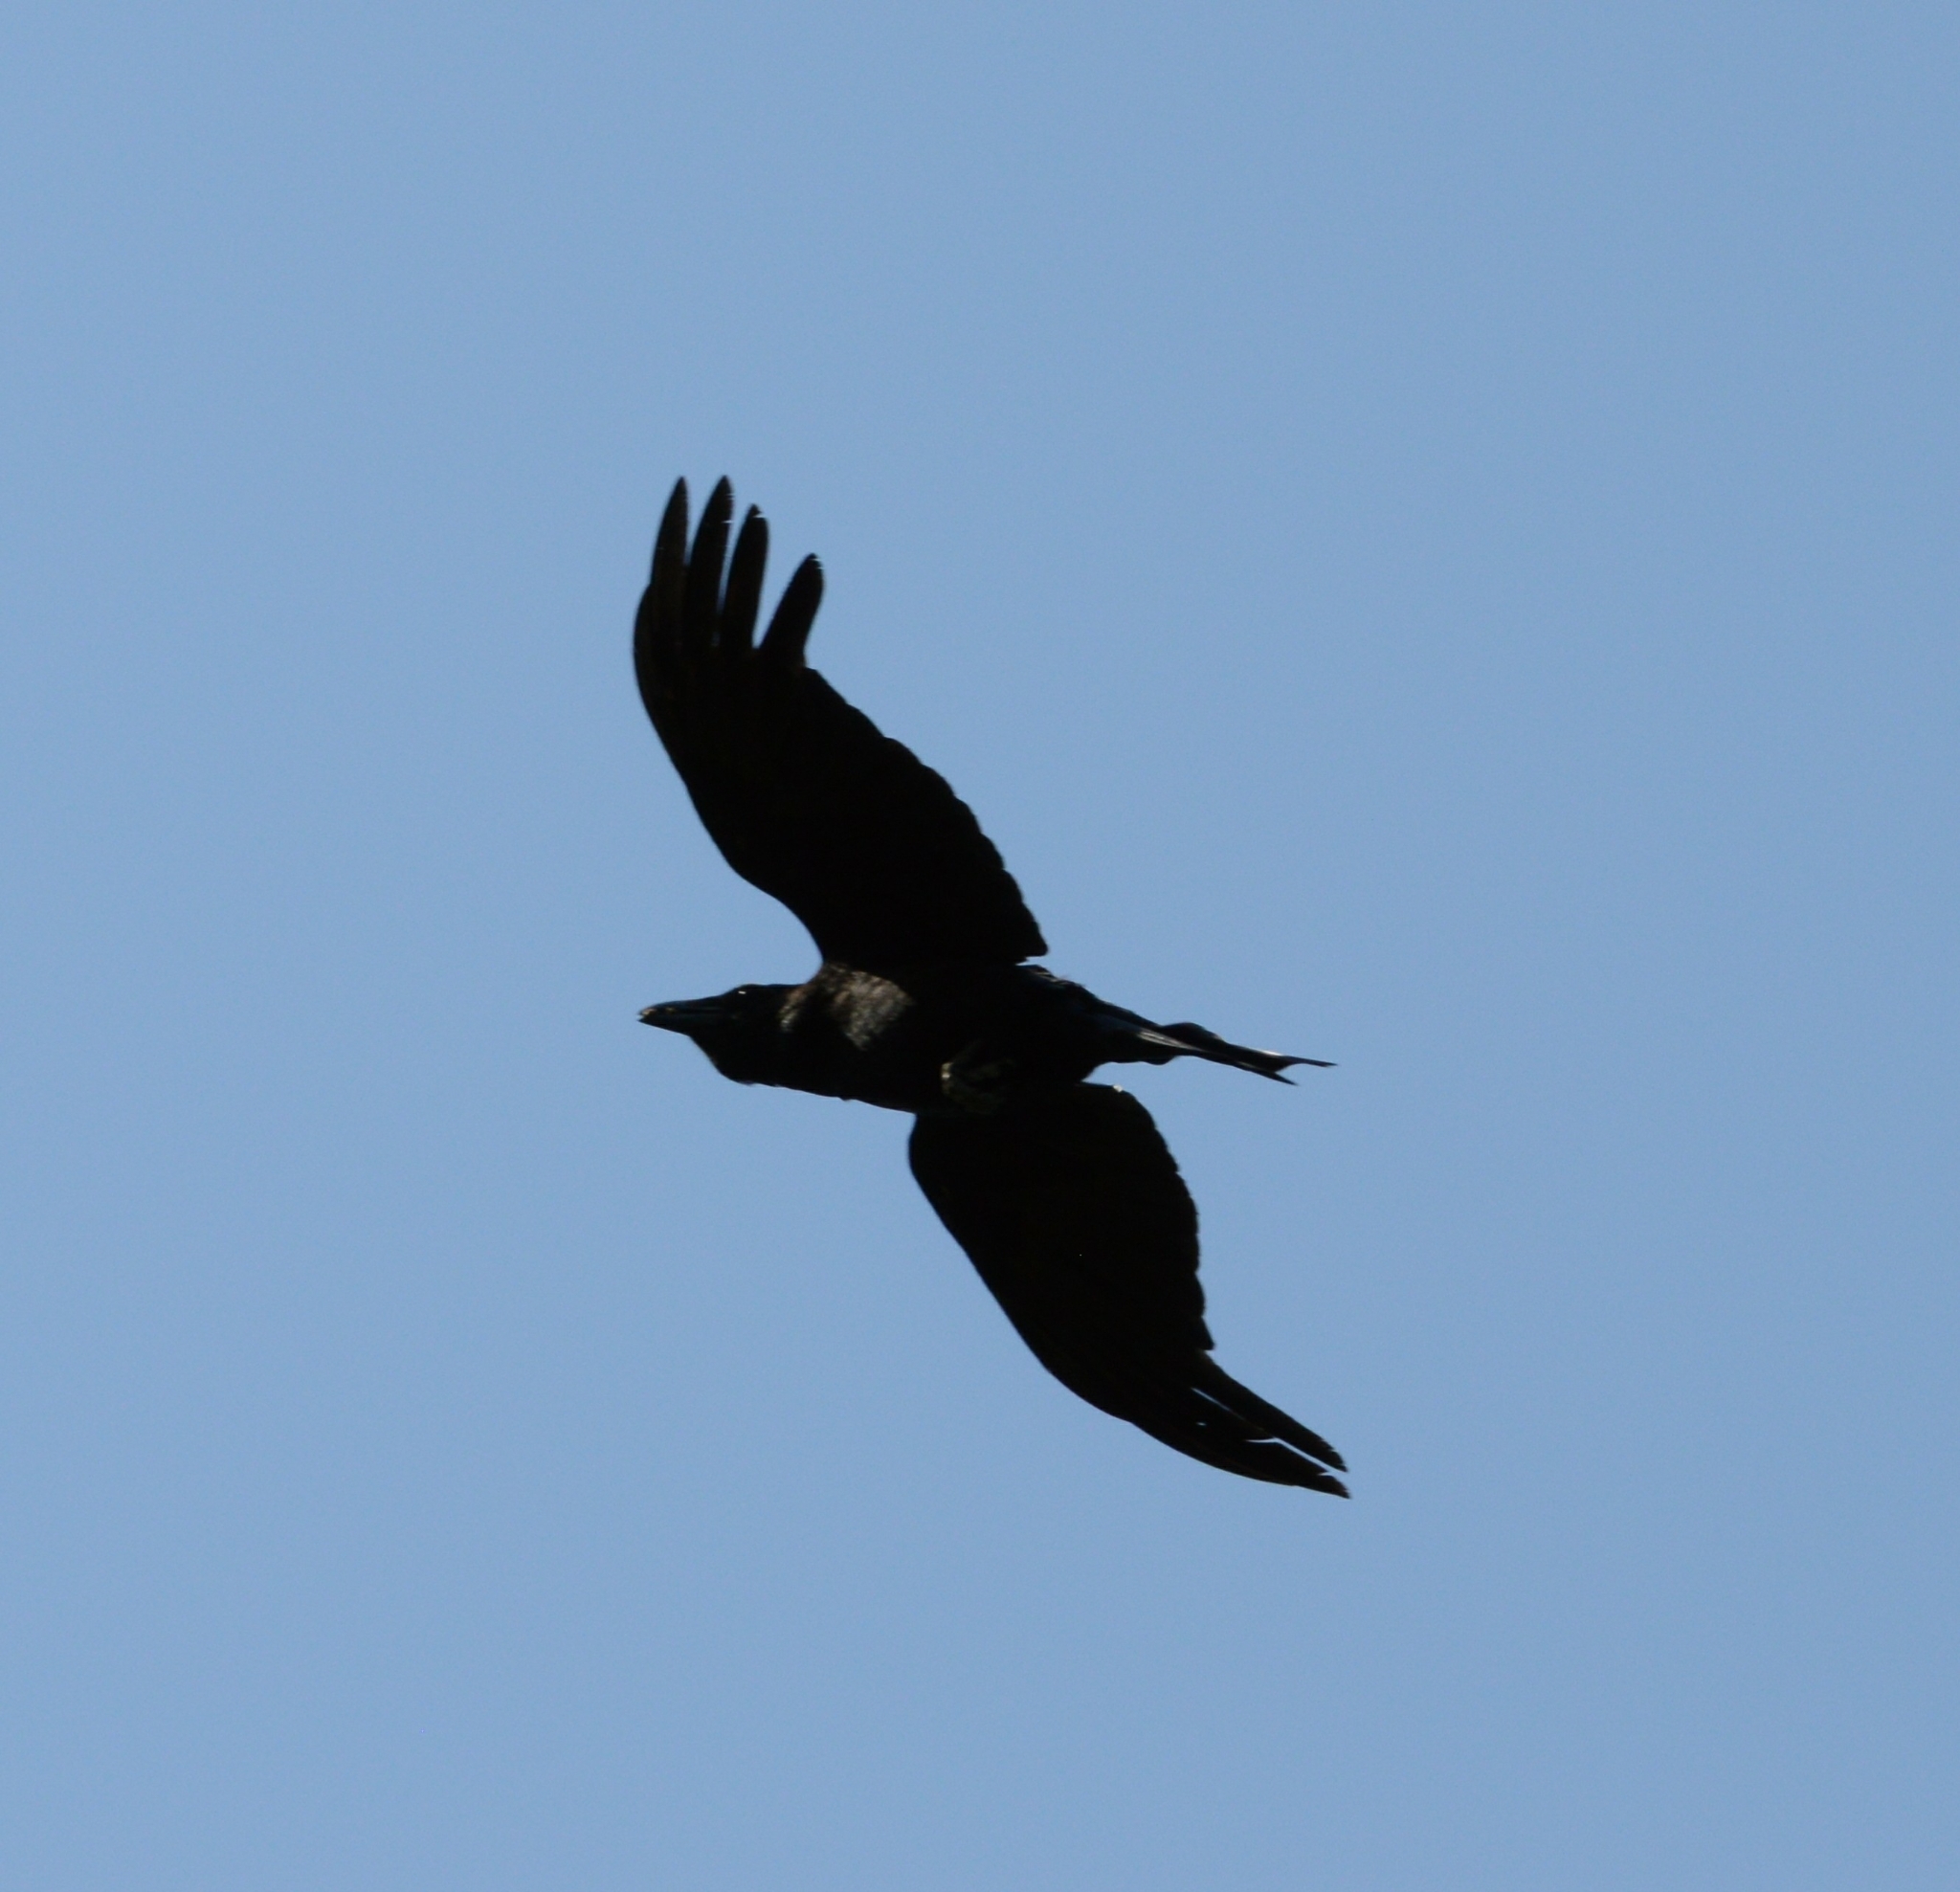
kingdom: Animalia
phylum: Chordata
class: Aves
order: Passeriformes
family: Corvidae
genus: Corvus
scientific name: Corvus corone
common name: Carrion crow
